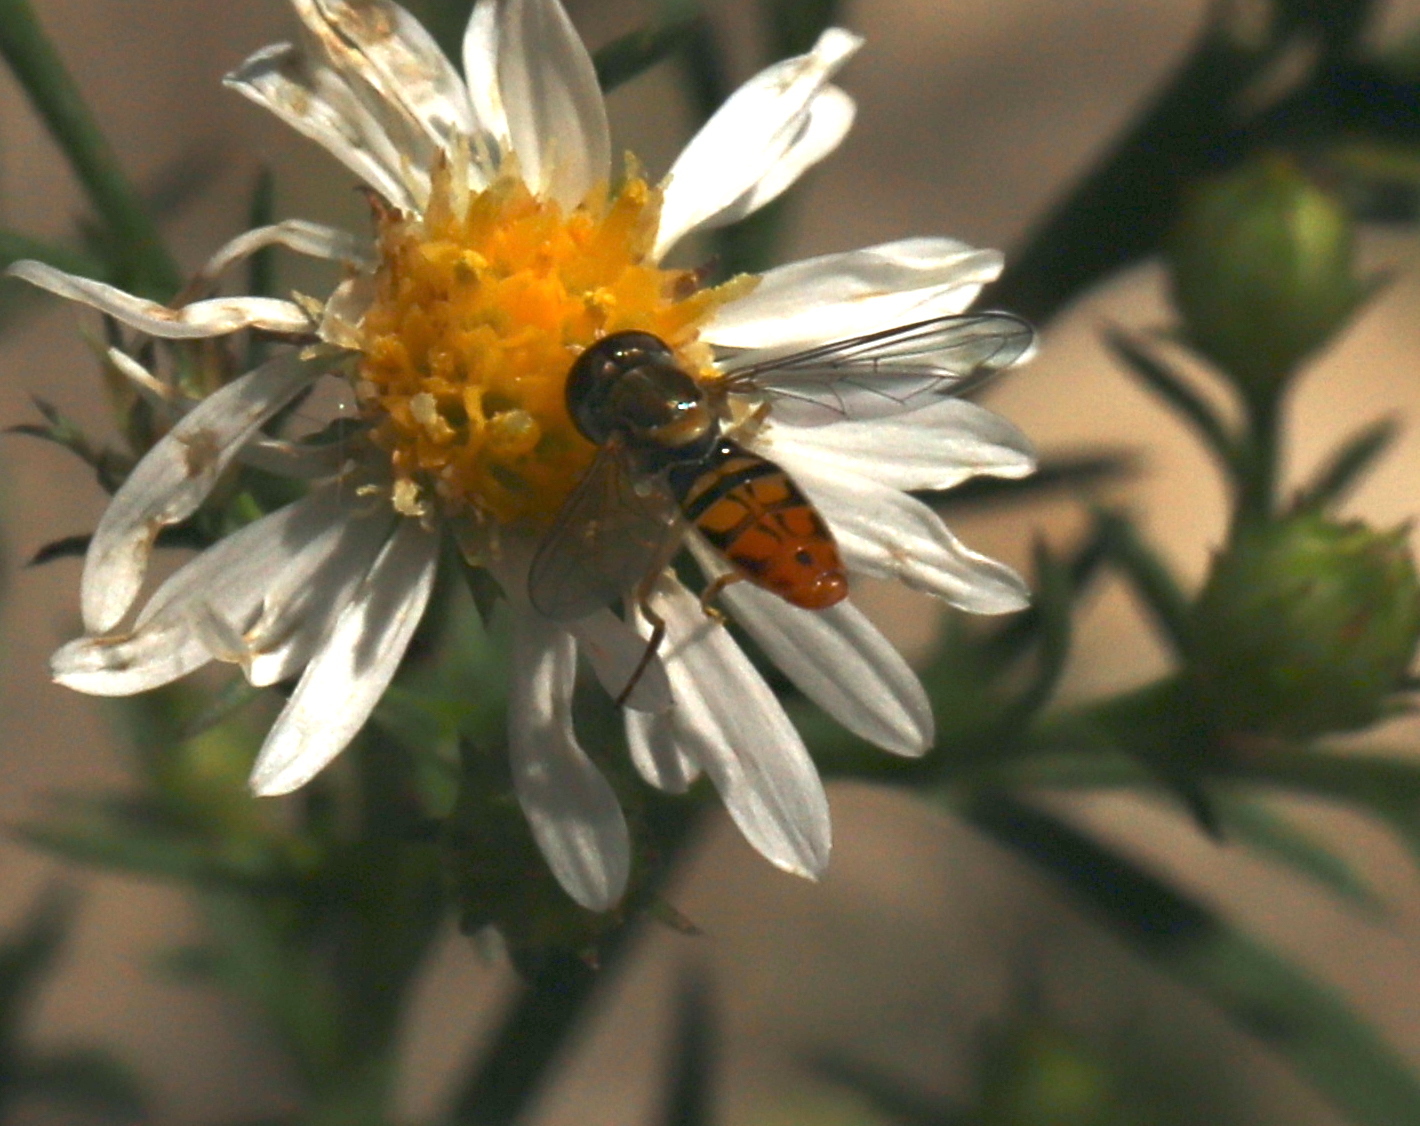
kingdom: Animalia
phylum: Arthropoda
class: Insecta
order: Diptera
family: Syrphidae
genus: Toxomerus
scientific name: Toxomerus marginatus
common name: Syrphid fly
